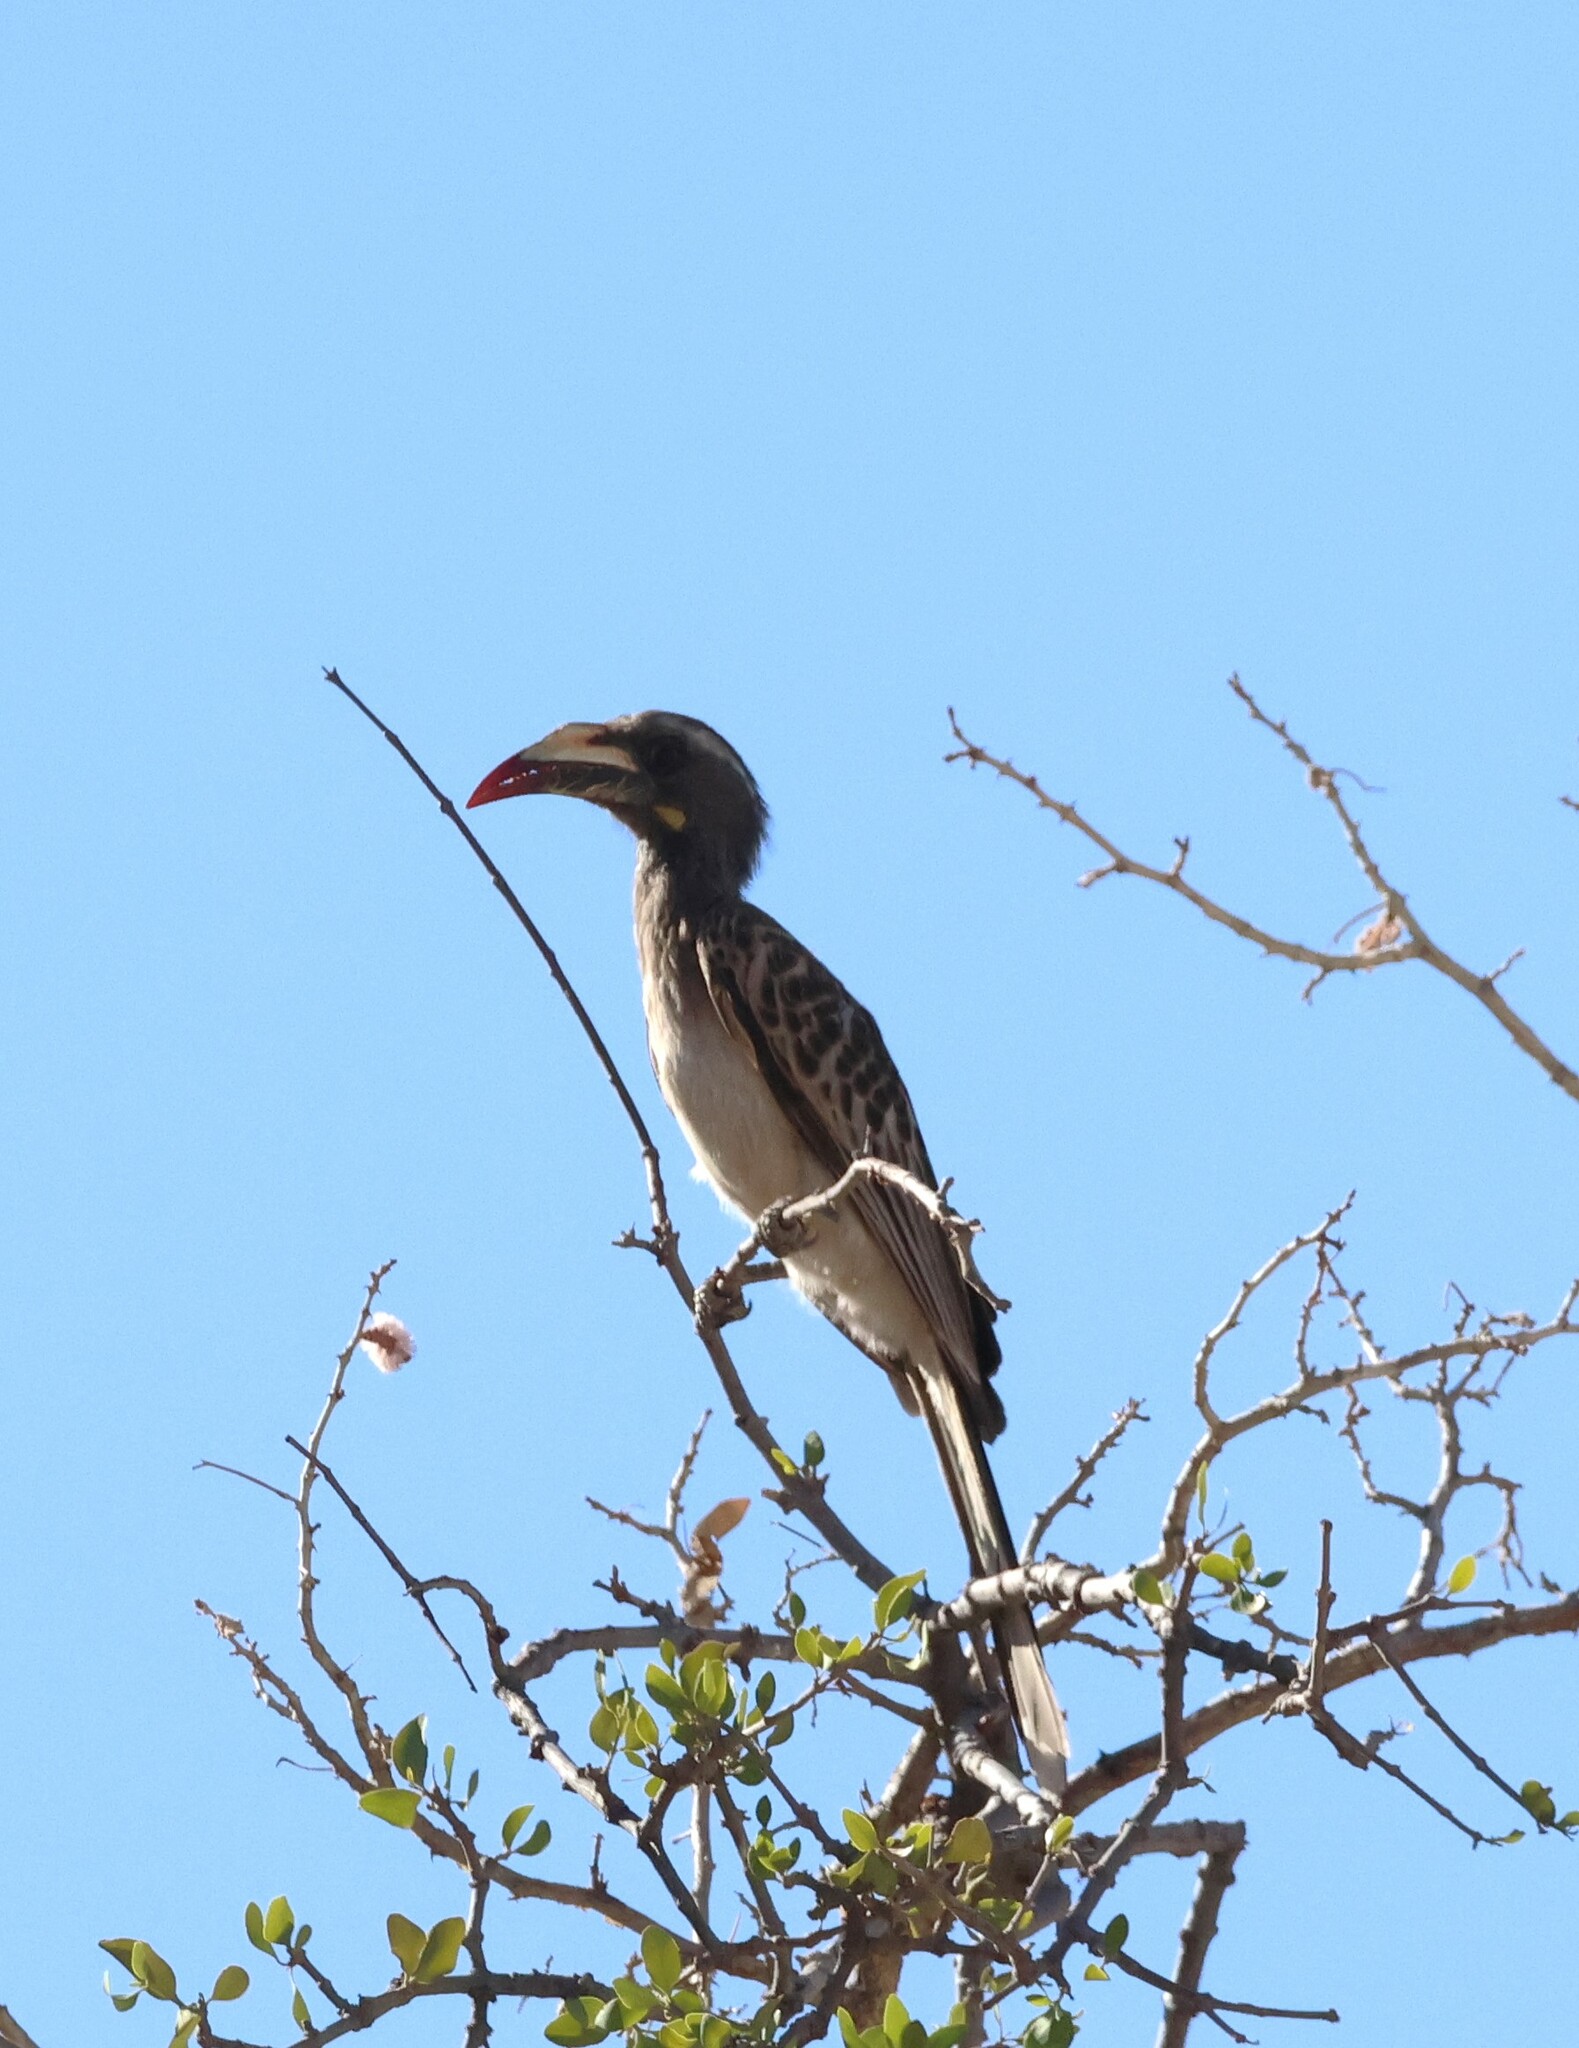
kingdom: Animalia
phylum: Chordata
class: Aves
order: Bucerotiformes
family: Bucerotidae
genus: Lophoceros
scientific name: Lophoceros nasutus
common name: African grey hornbill
